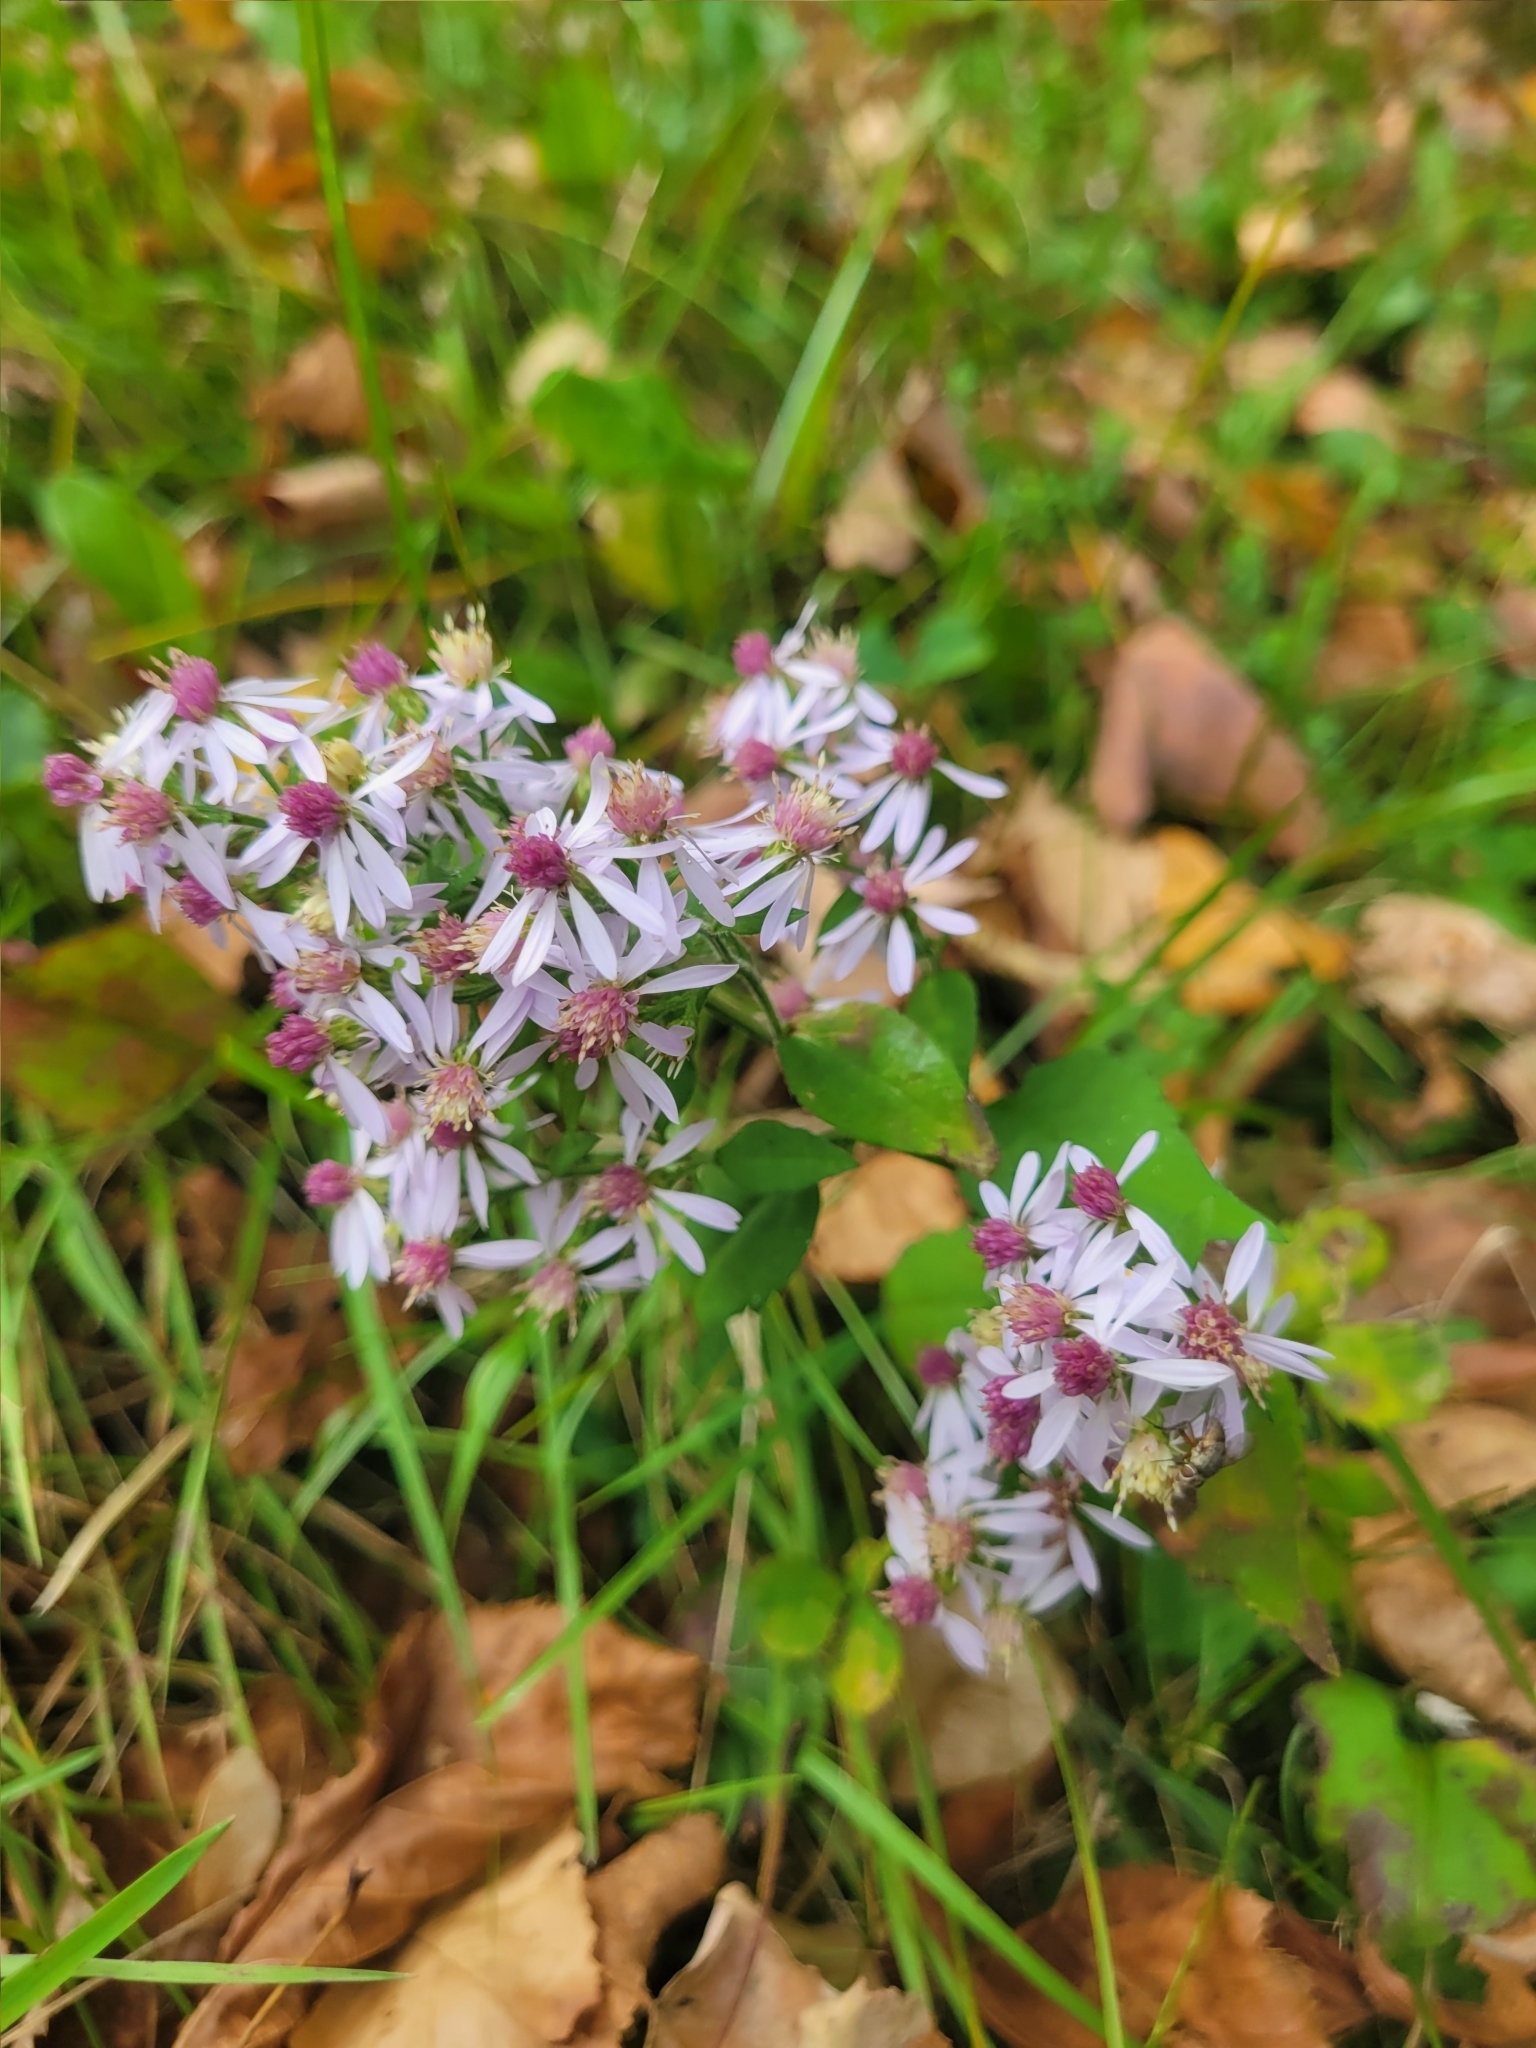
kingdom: Plantae
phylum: Tracheophyta
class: Magnoliopsida
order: Asterales
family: Asteraceae
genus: Symphyotrichum
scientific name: Symphyotrichum lateriflorum
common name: Calico aster
